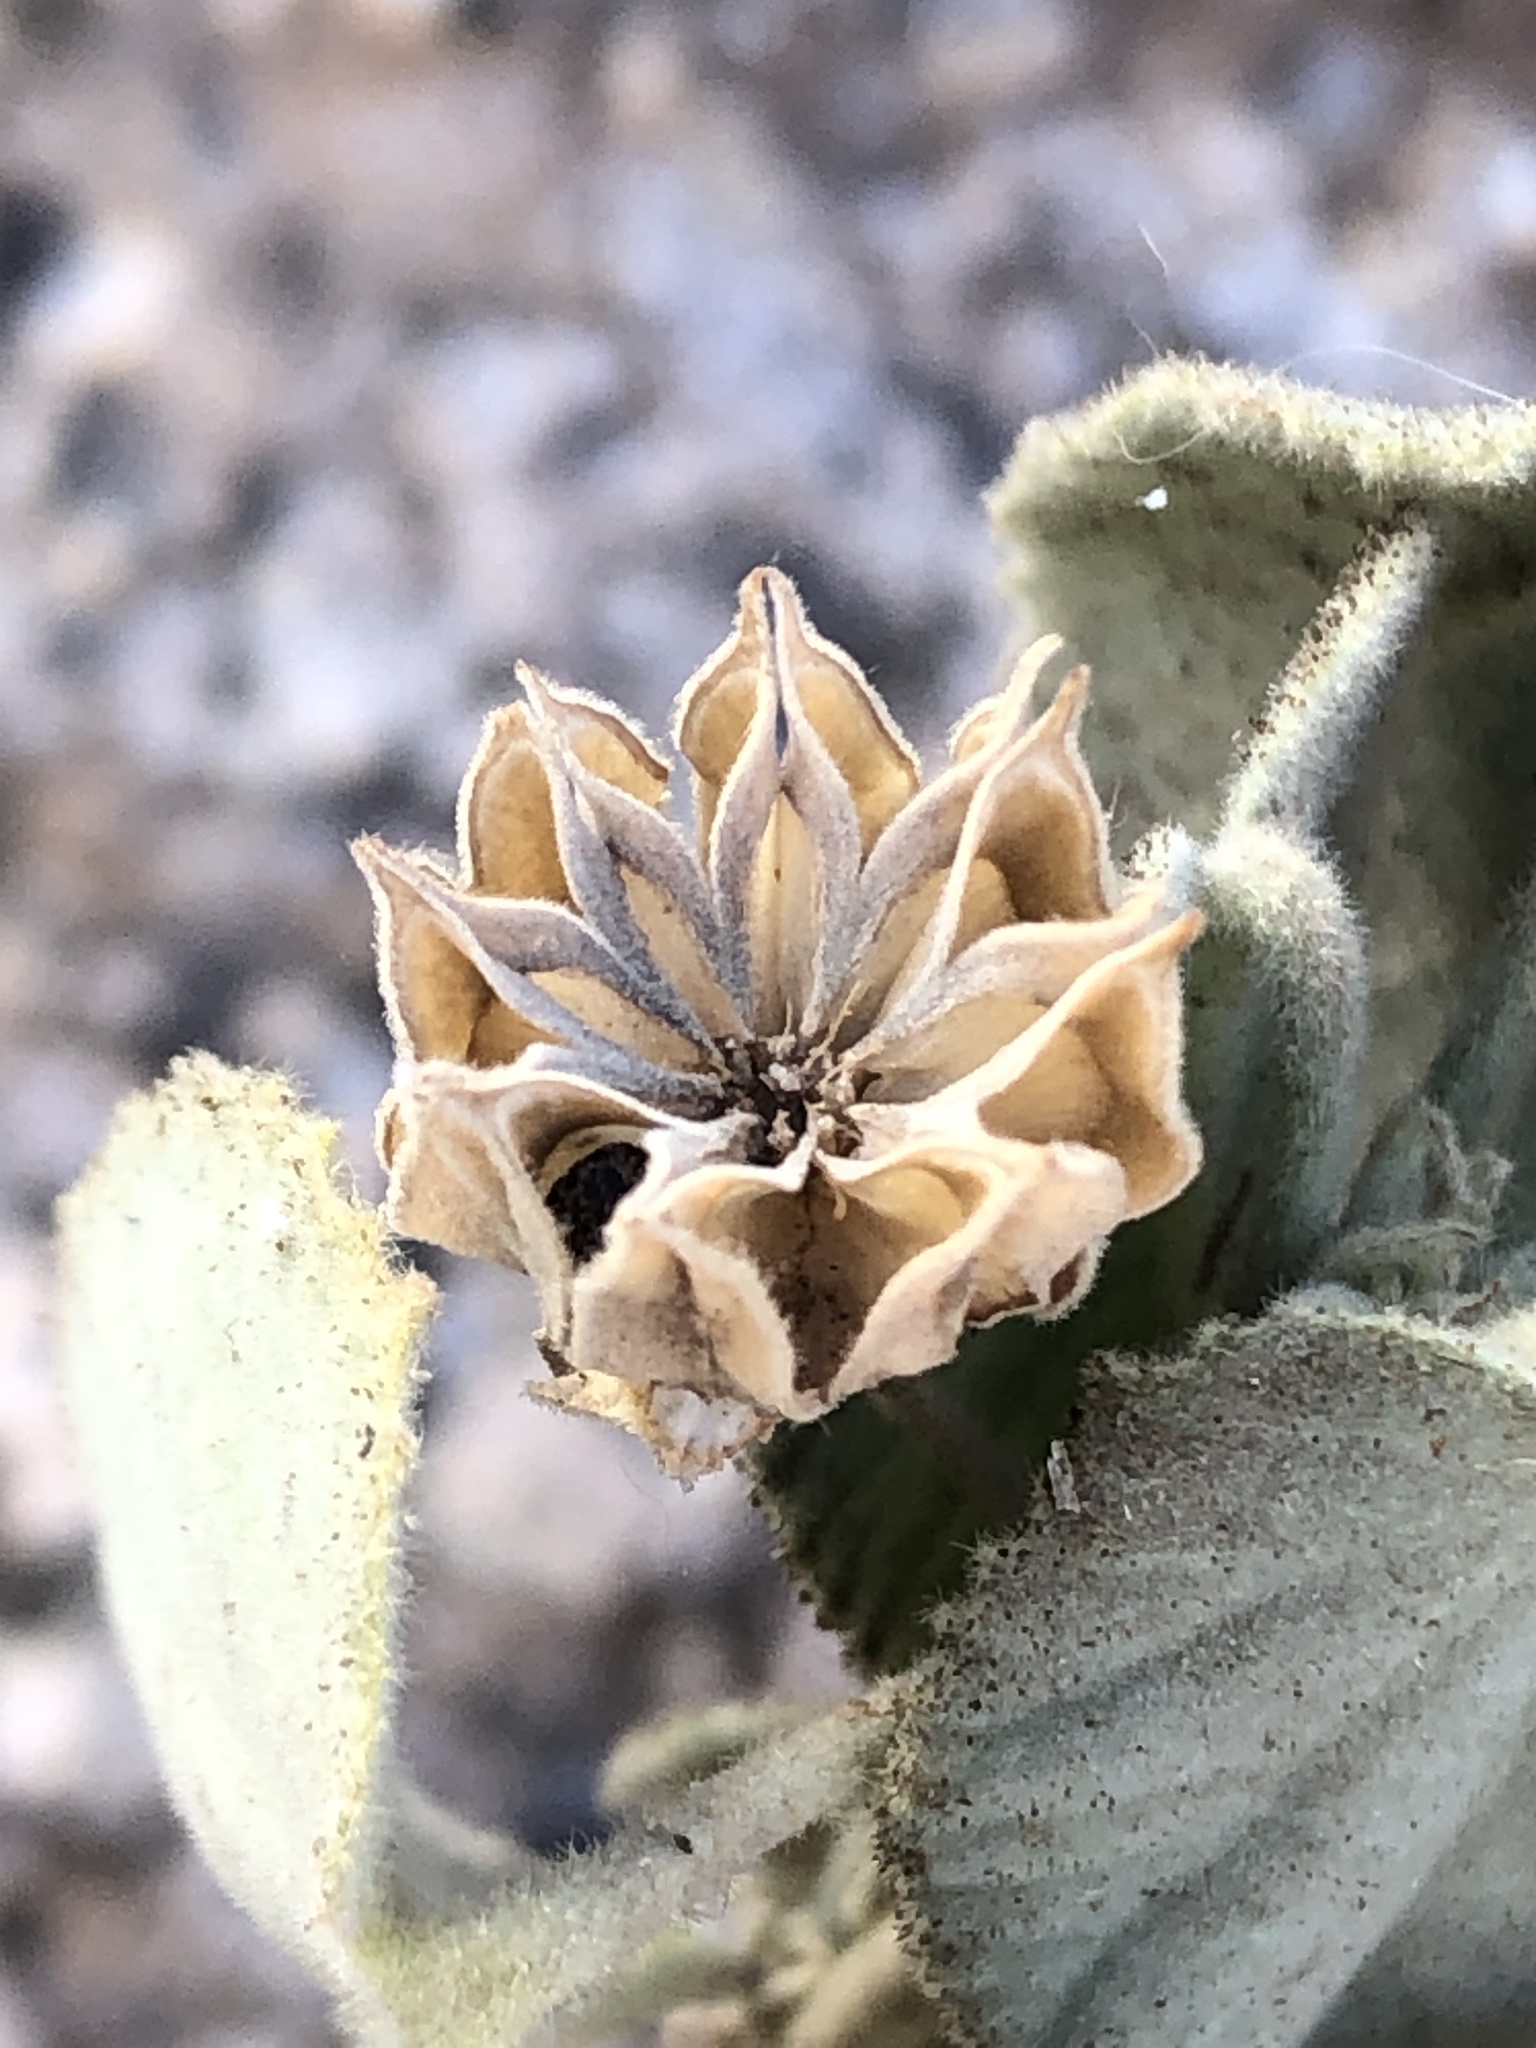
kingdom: Plantae
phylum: Tracheophyta
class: Magnoliopsida
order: Malvales
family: Malvaceae
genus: Abutilon
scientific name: Abutilon abutiloides
